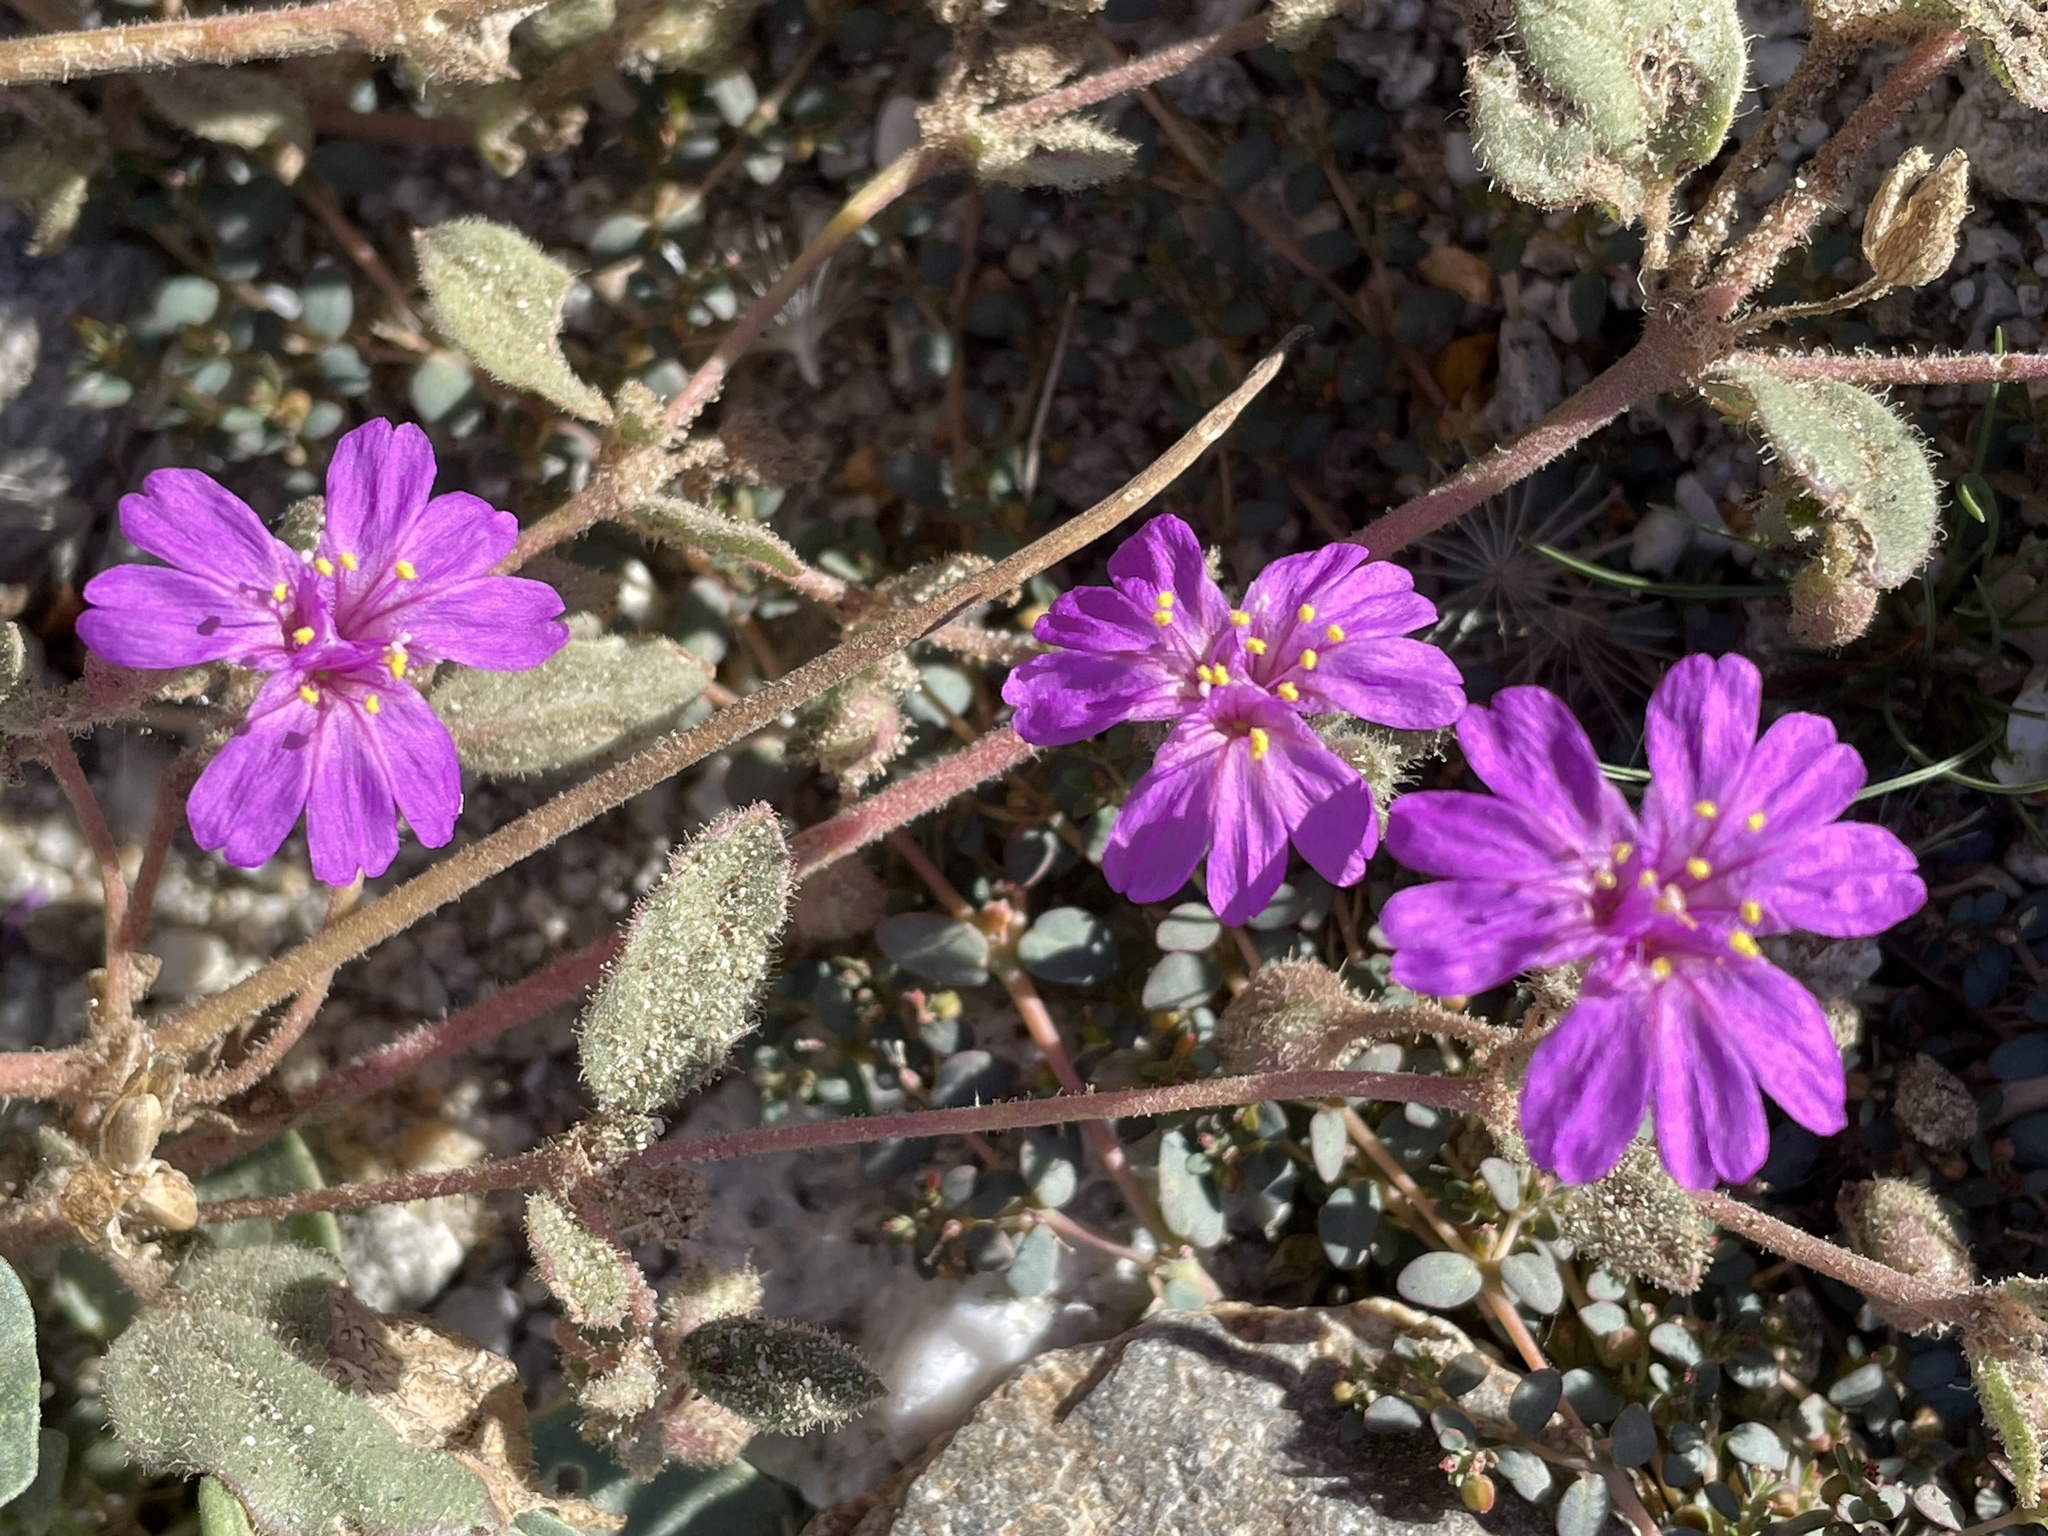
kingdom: Plantae
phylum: Tracheophyta
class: Magnoliopsida
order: Caryophyllales
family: Nyctaginaceae
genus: Allionia
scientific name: Allionia incarnata
